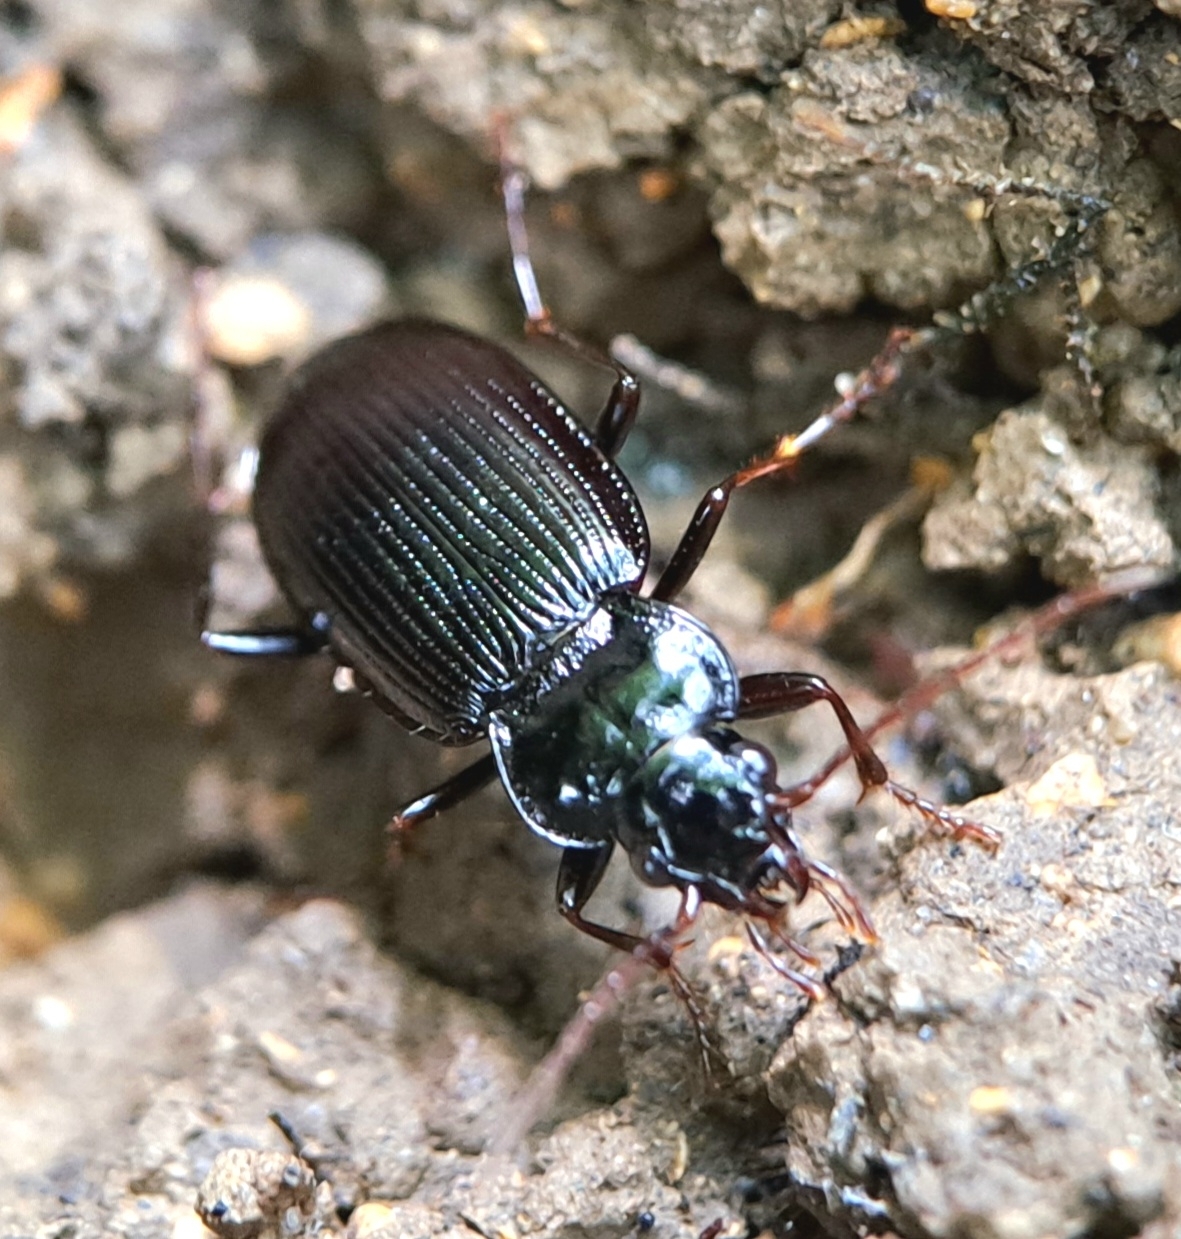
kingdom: Animalia
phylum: Arthropoda
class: Insecta
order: Coleoptera
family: Carabidae
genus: Nebria
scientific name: Nebria brevicollis
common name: Short-necked gazelle beetle
